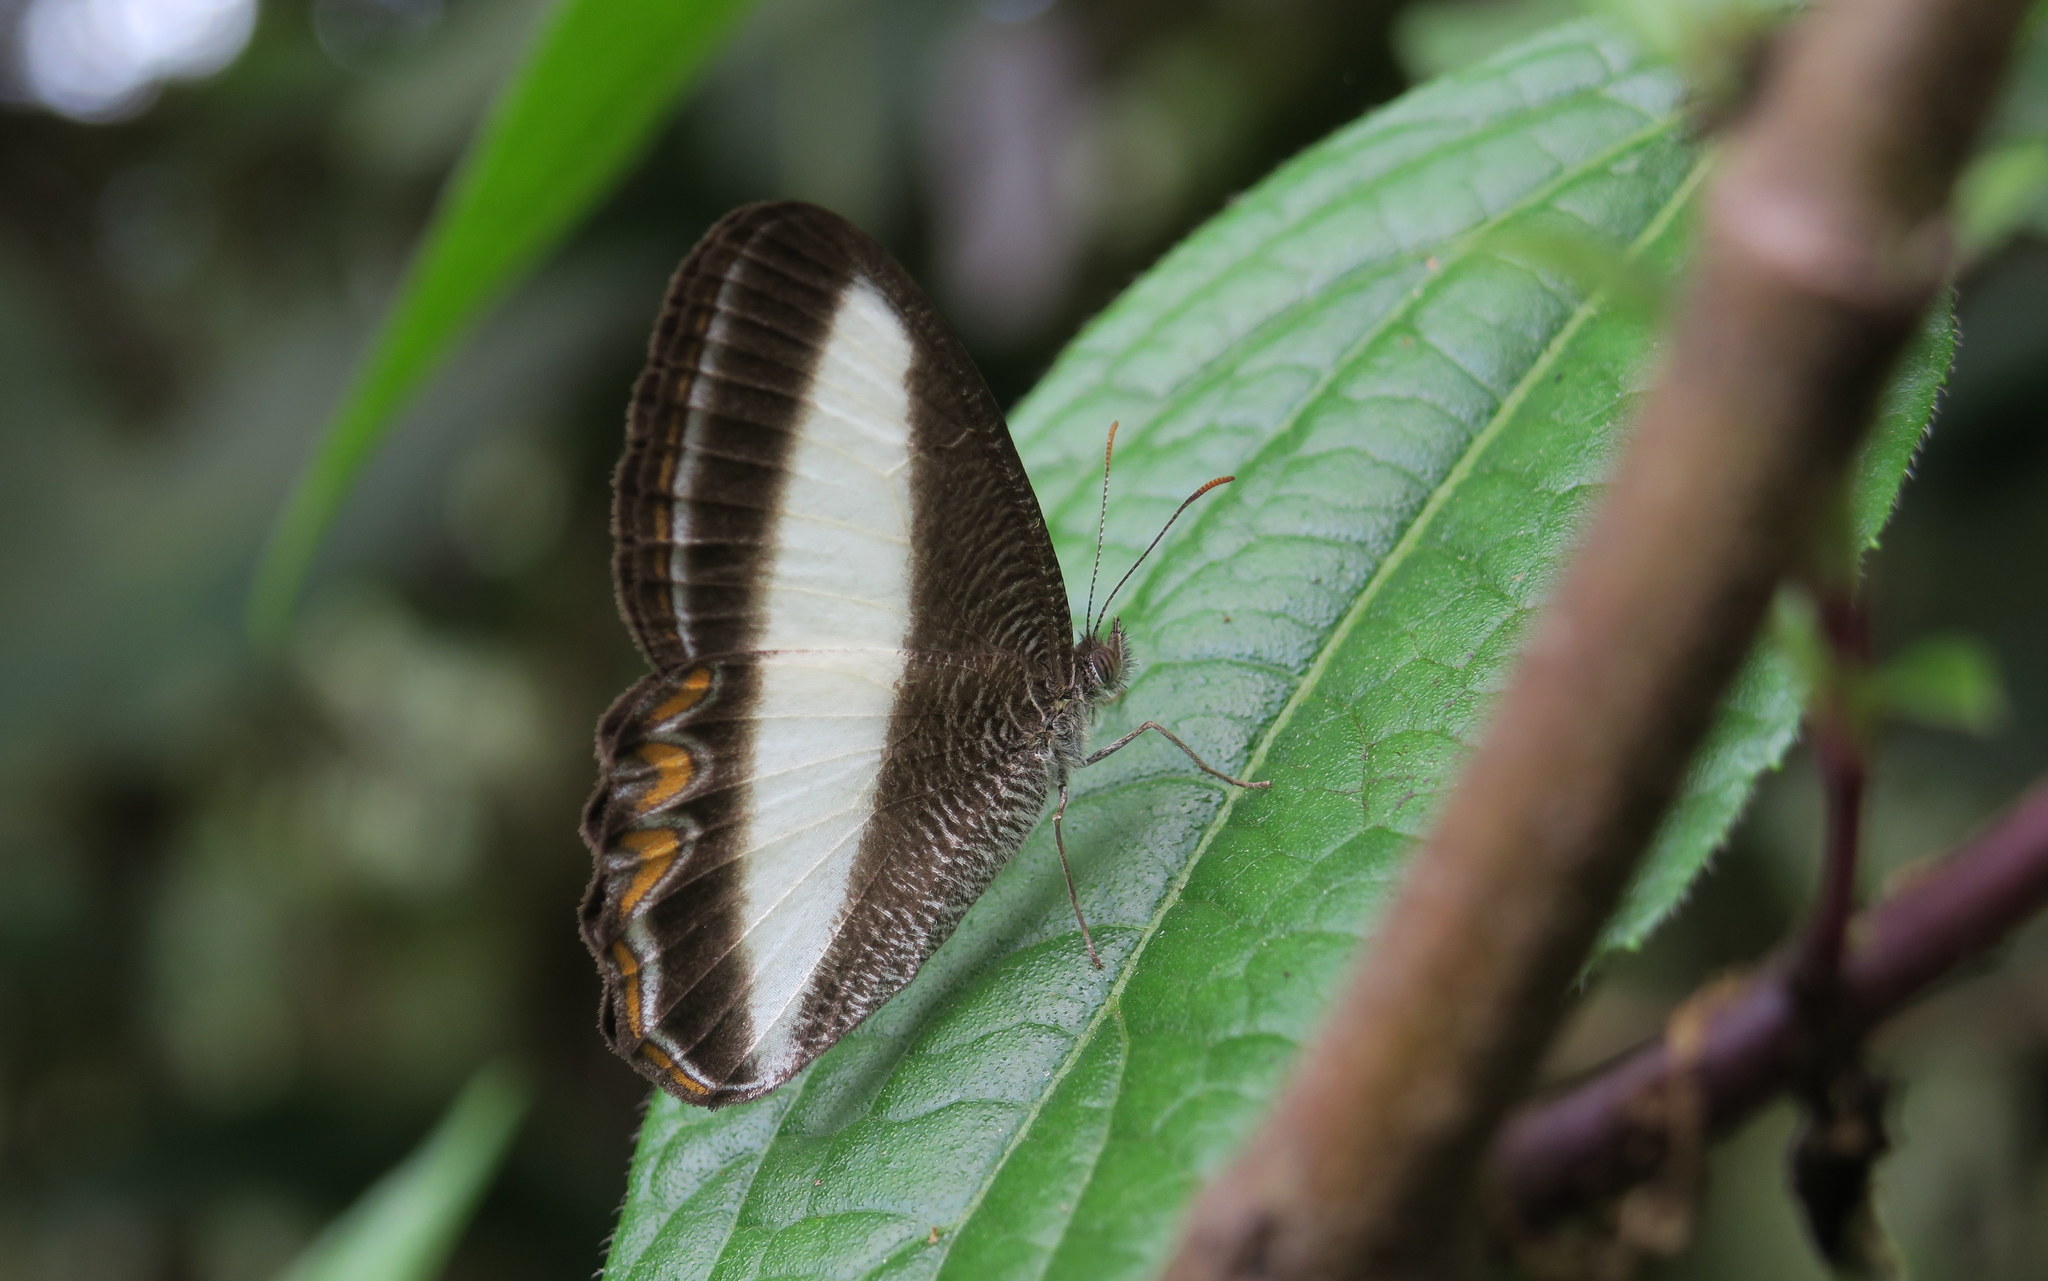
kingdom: Animalia
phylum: Arthropoda
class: Insecta
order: Lepidoptera
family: Nymphalidae
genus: Oressinoma
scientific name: Oressinoma typhla
